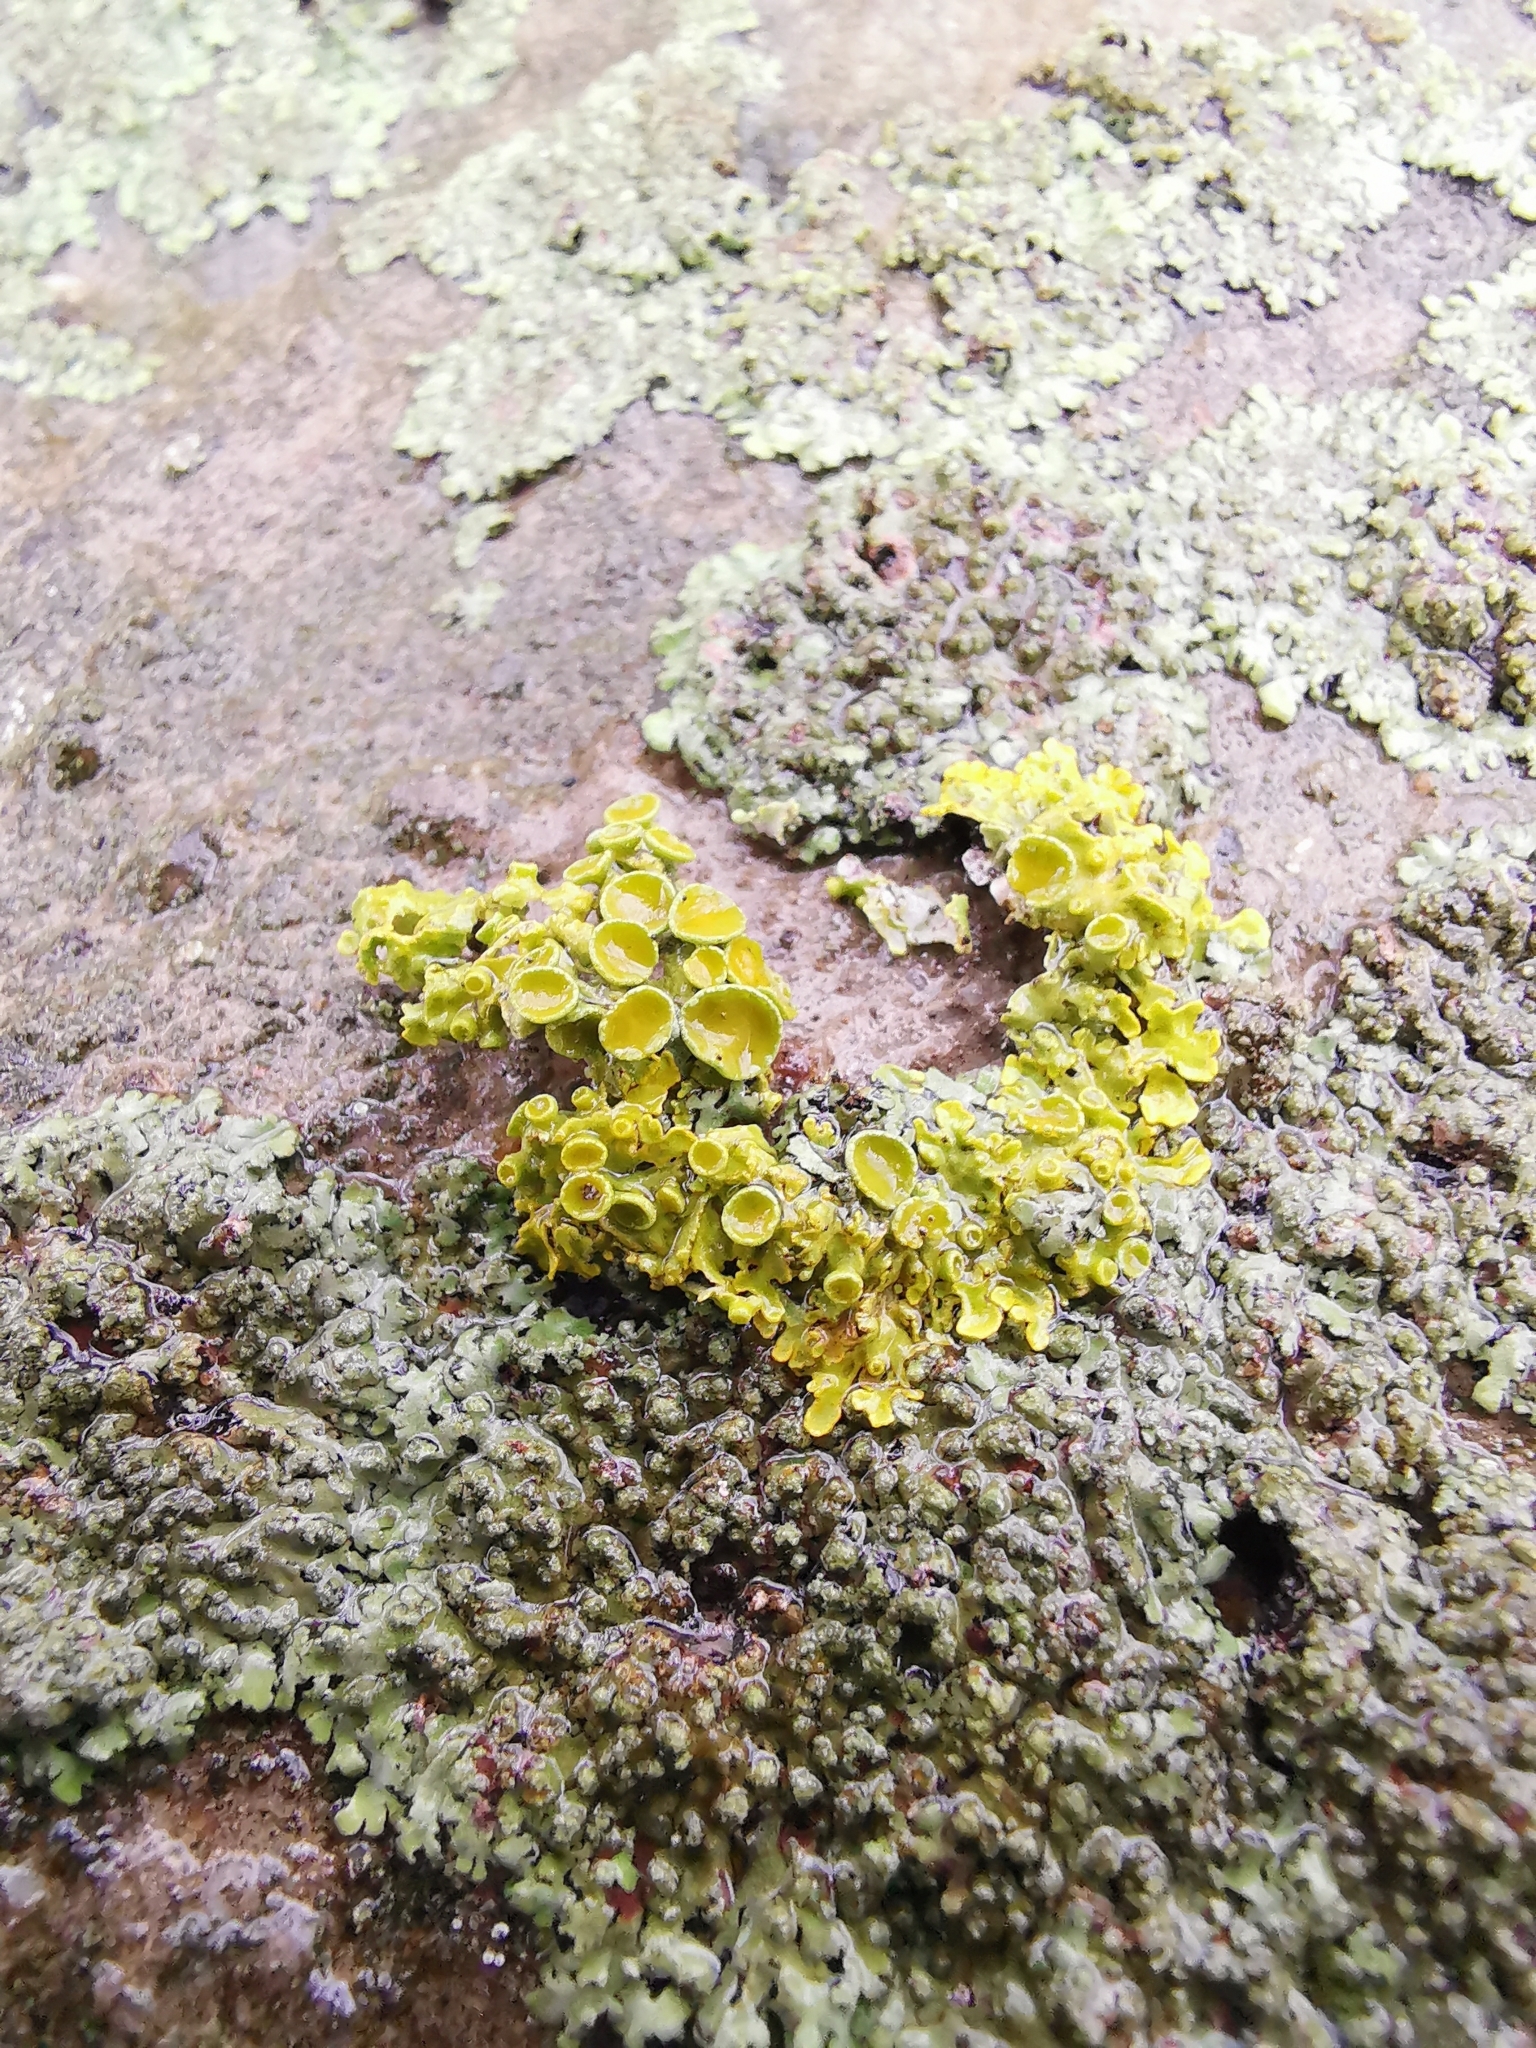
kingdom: Fungi
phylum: Ascomycota
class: Lecanoromycetes
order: Teloschistales
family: Teloschistaceae
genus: Xanthoria
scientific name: Xanthoria parietina
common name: Common orange lichen
